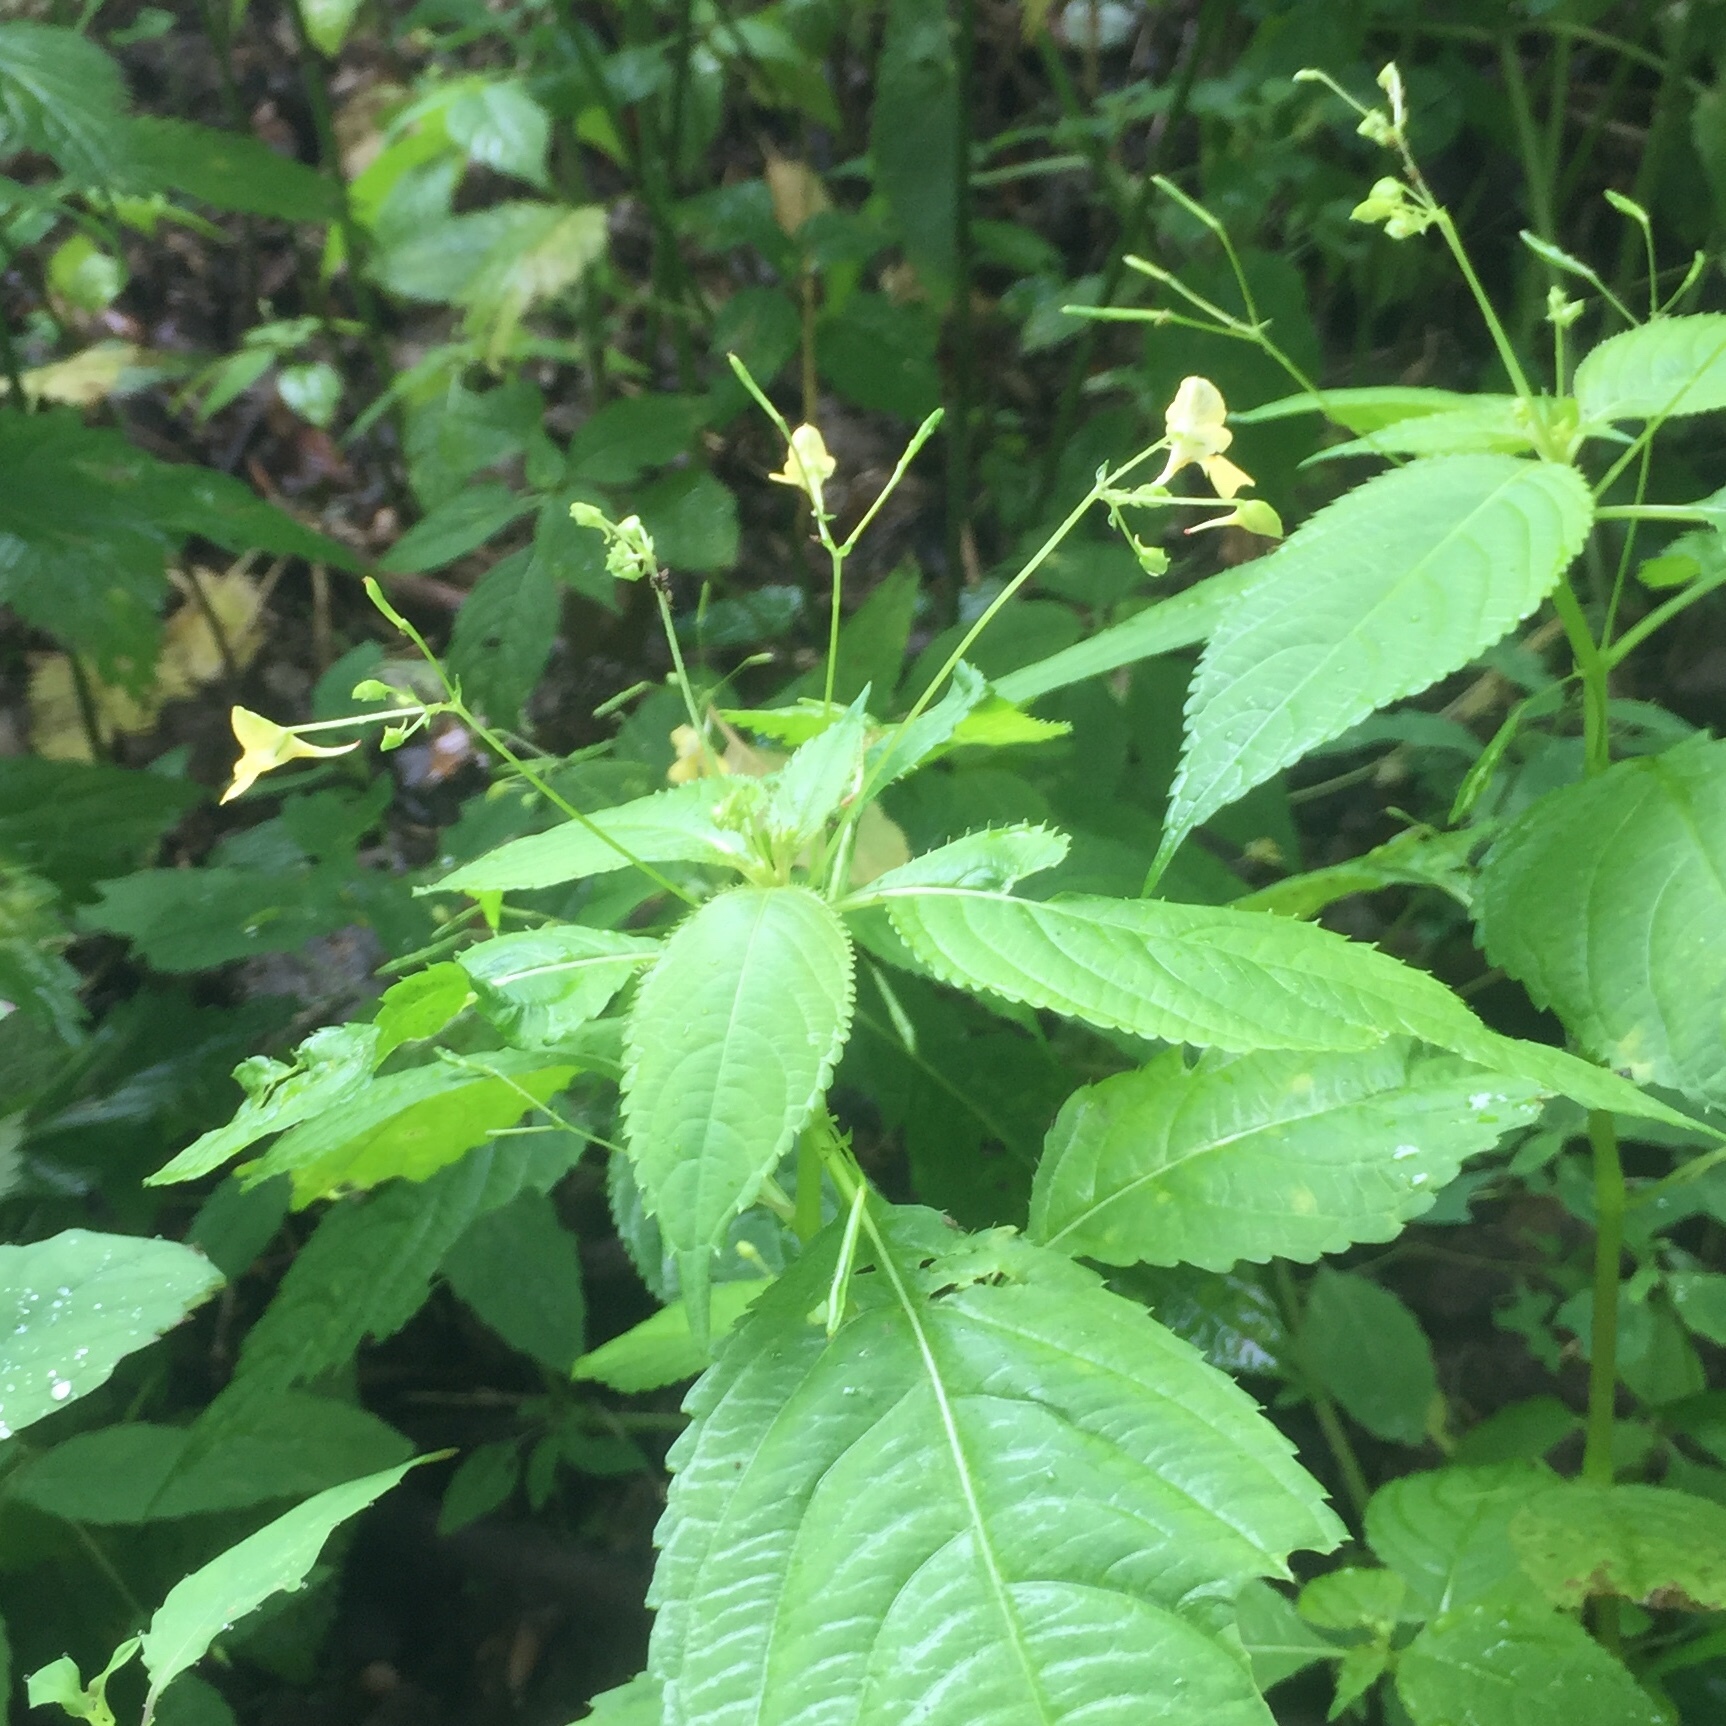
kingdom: Plantae
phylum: Tracheophyta
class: Magnoliopsida
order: Ericales
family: Balsaminaceae
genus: Impatiens
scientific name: Impatiens parviflora
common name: Small balsam
